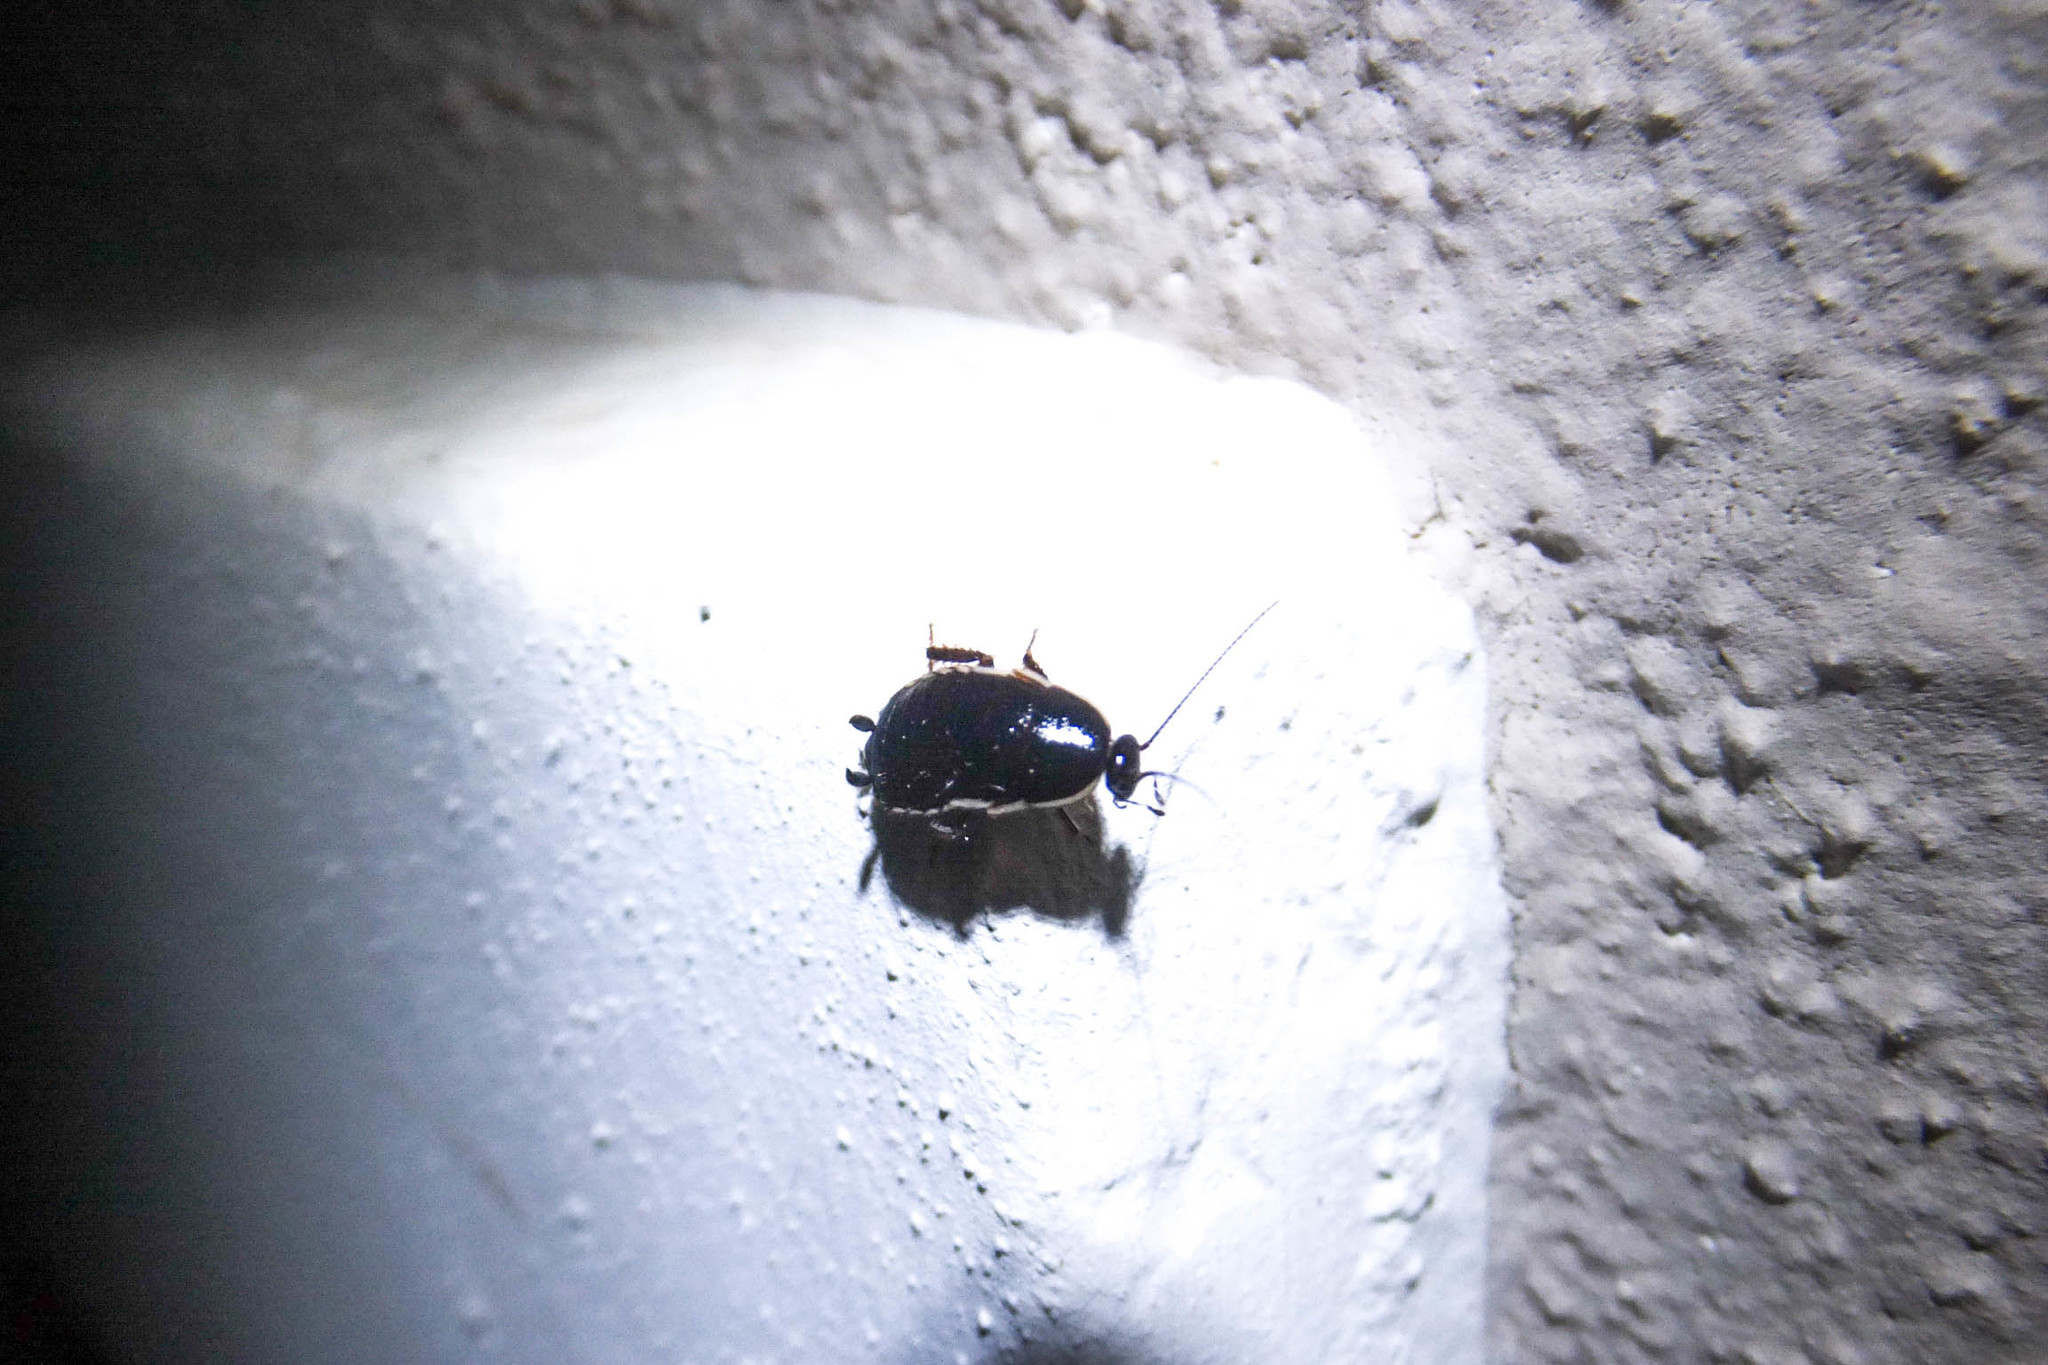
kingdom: Animalia
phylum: Arthropoda
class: Insecta
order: Blattodea
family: Ectobiidae
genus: Loboptera
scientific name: Loboptera decipiens
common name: Lobe-winged cockroach
